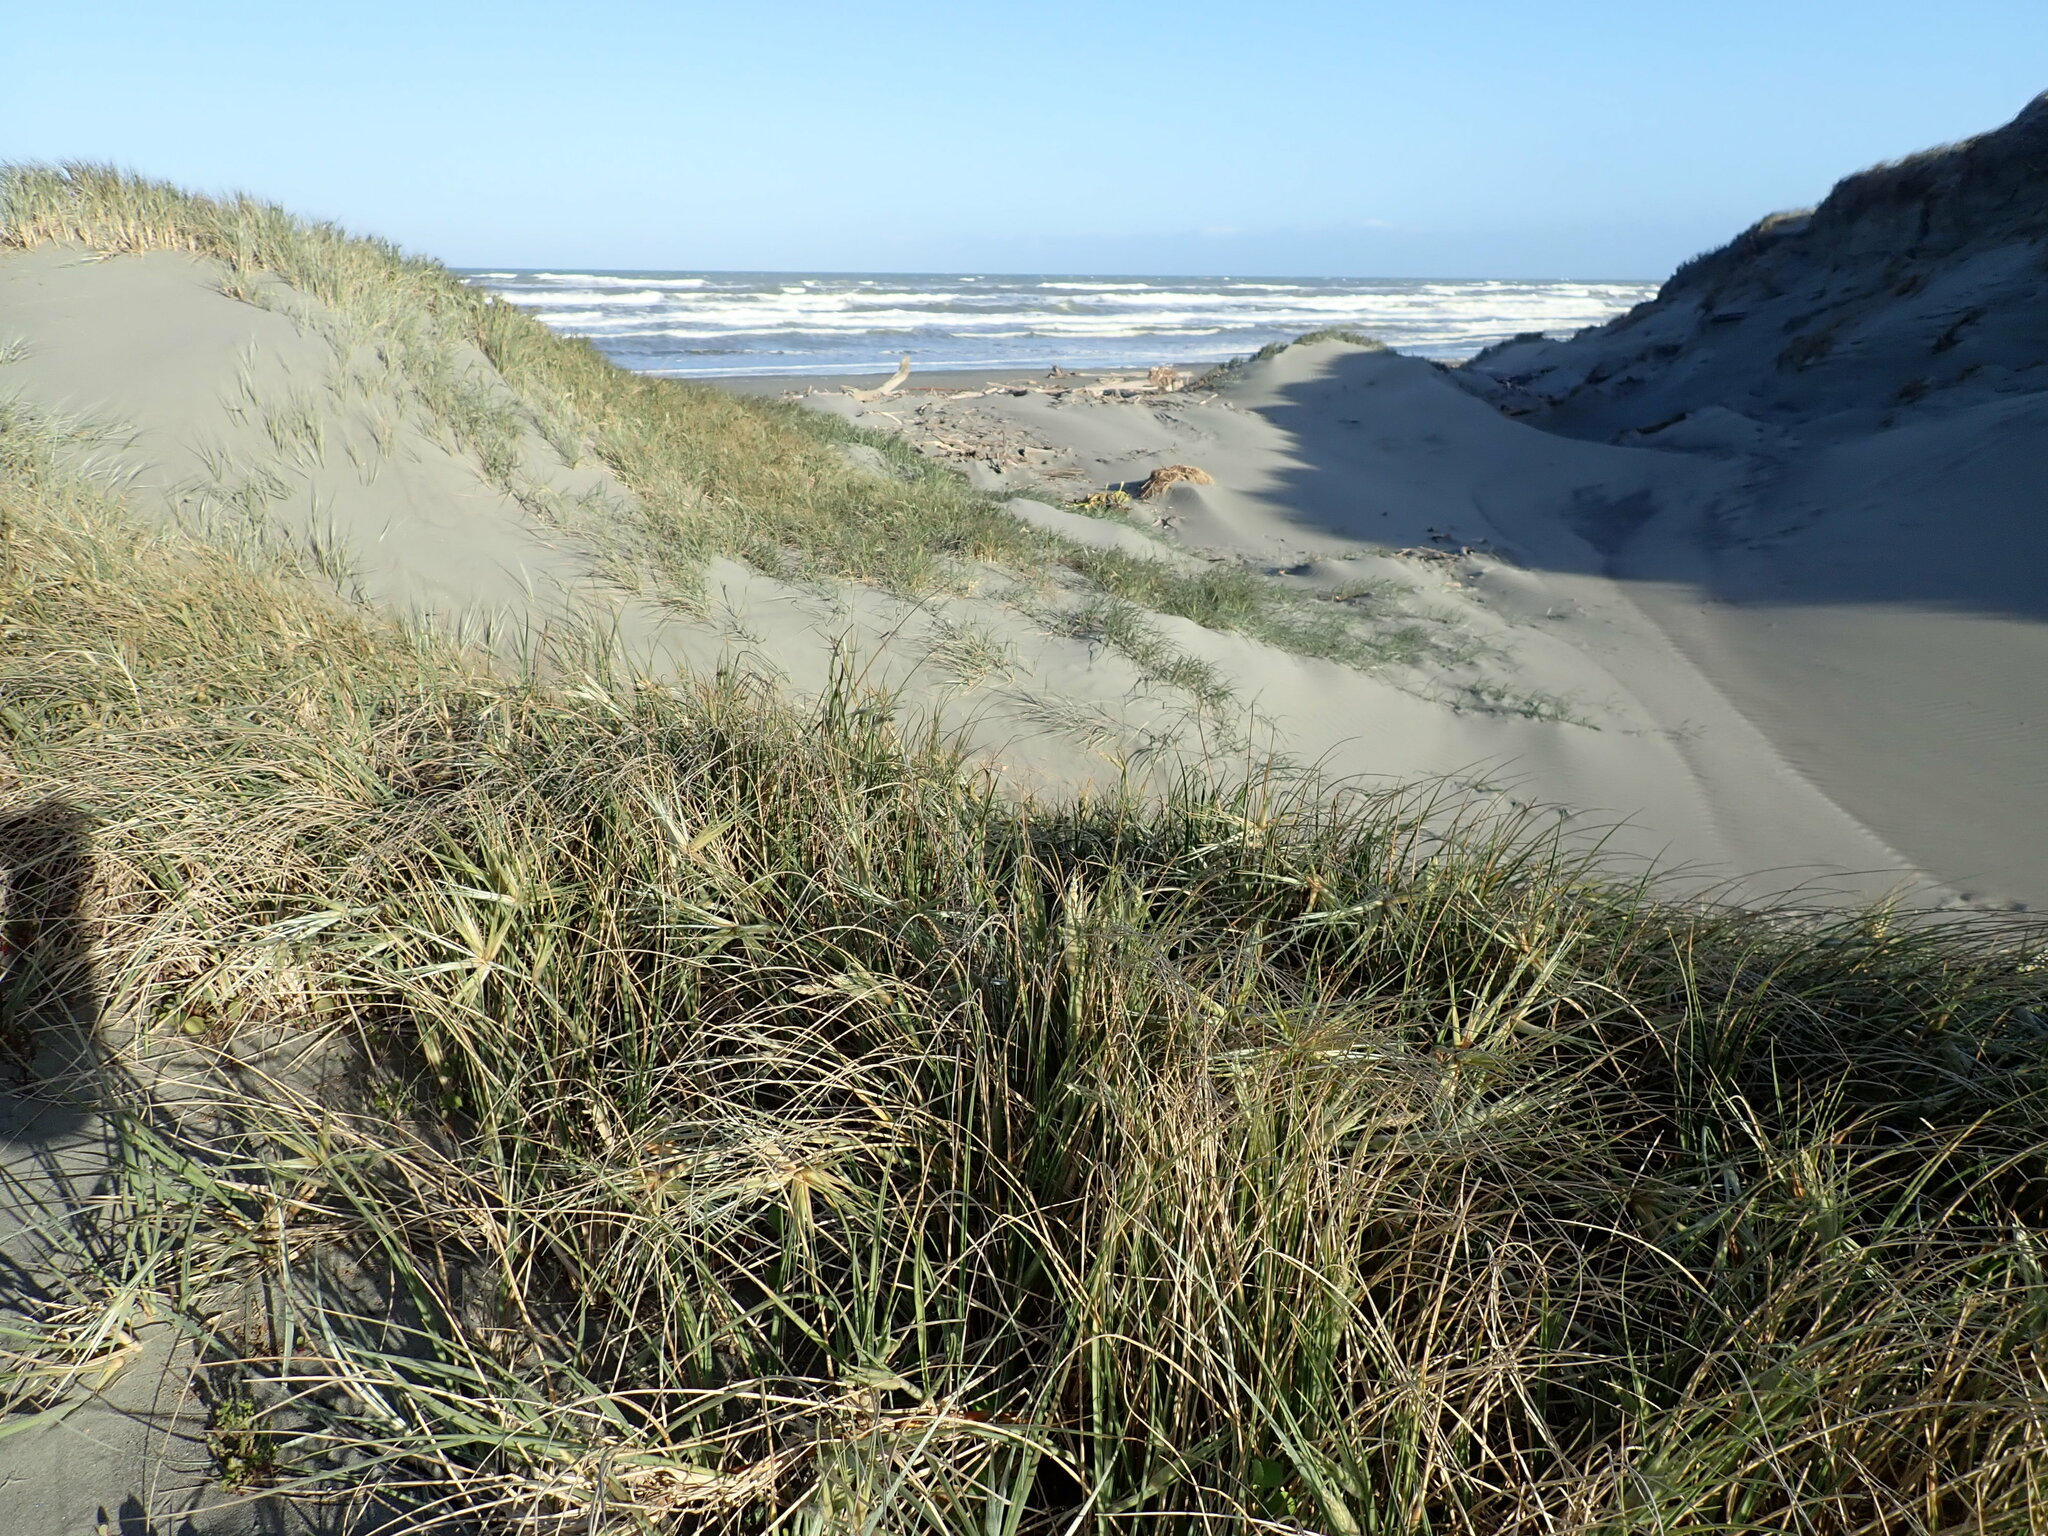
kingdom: Plantae
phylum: Tracheophyta
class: Liliopsida
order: Poales
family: Poaceae
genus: Spinifex
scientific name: Spinifex sericeus
